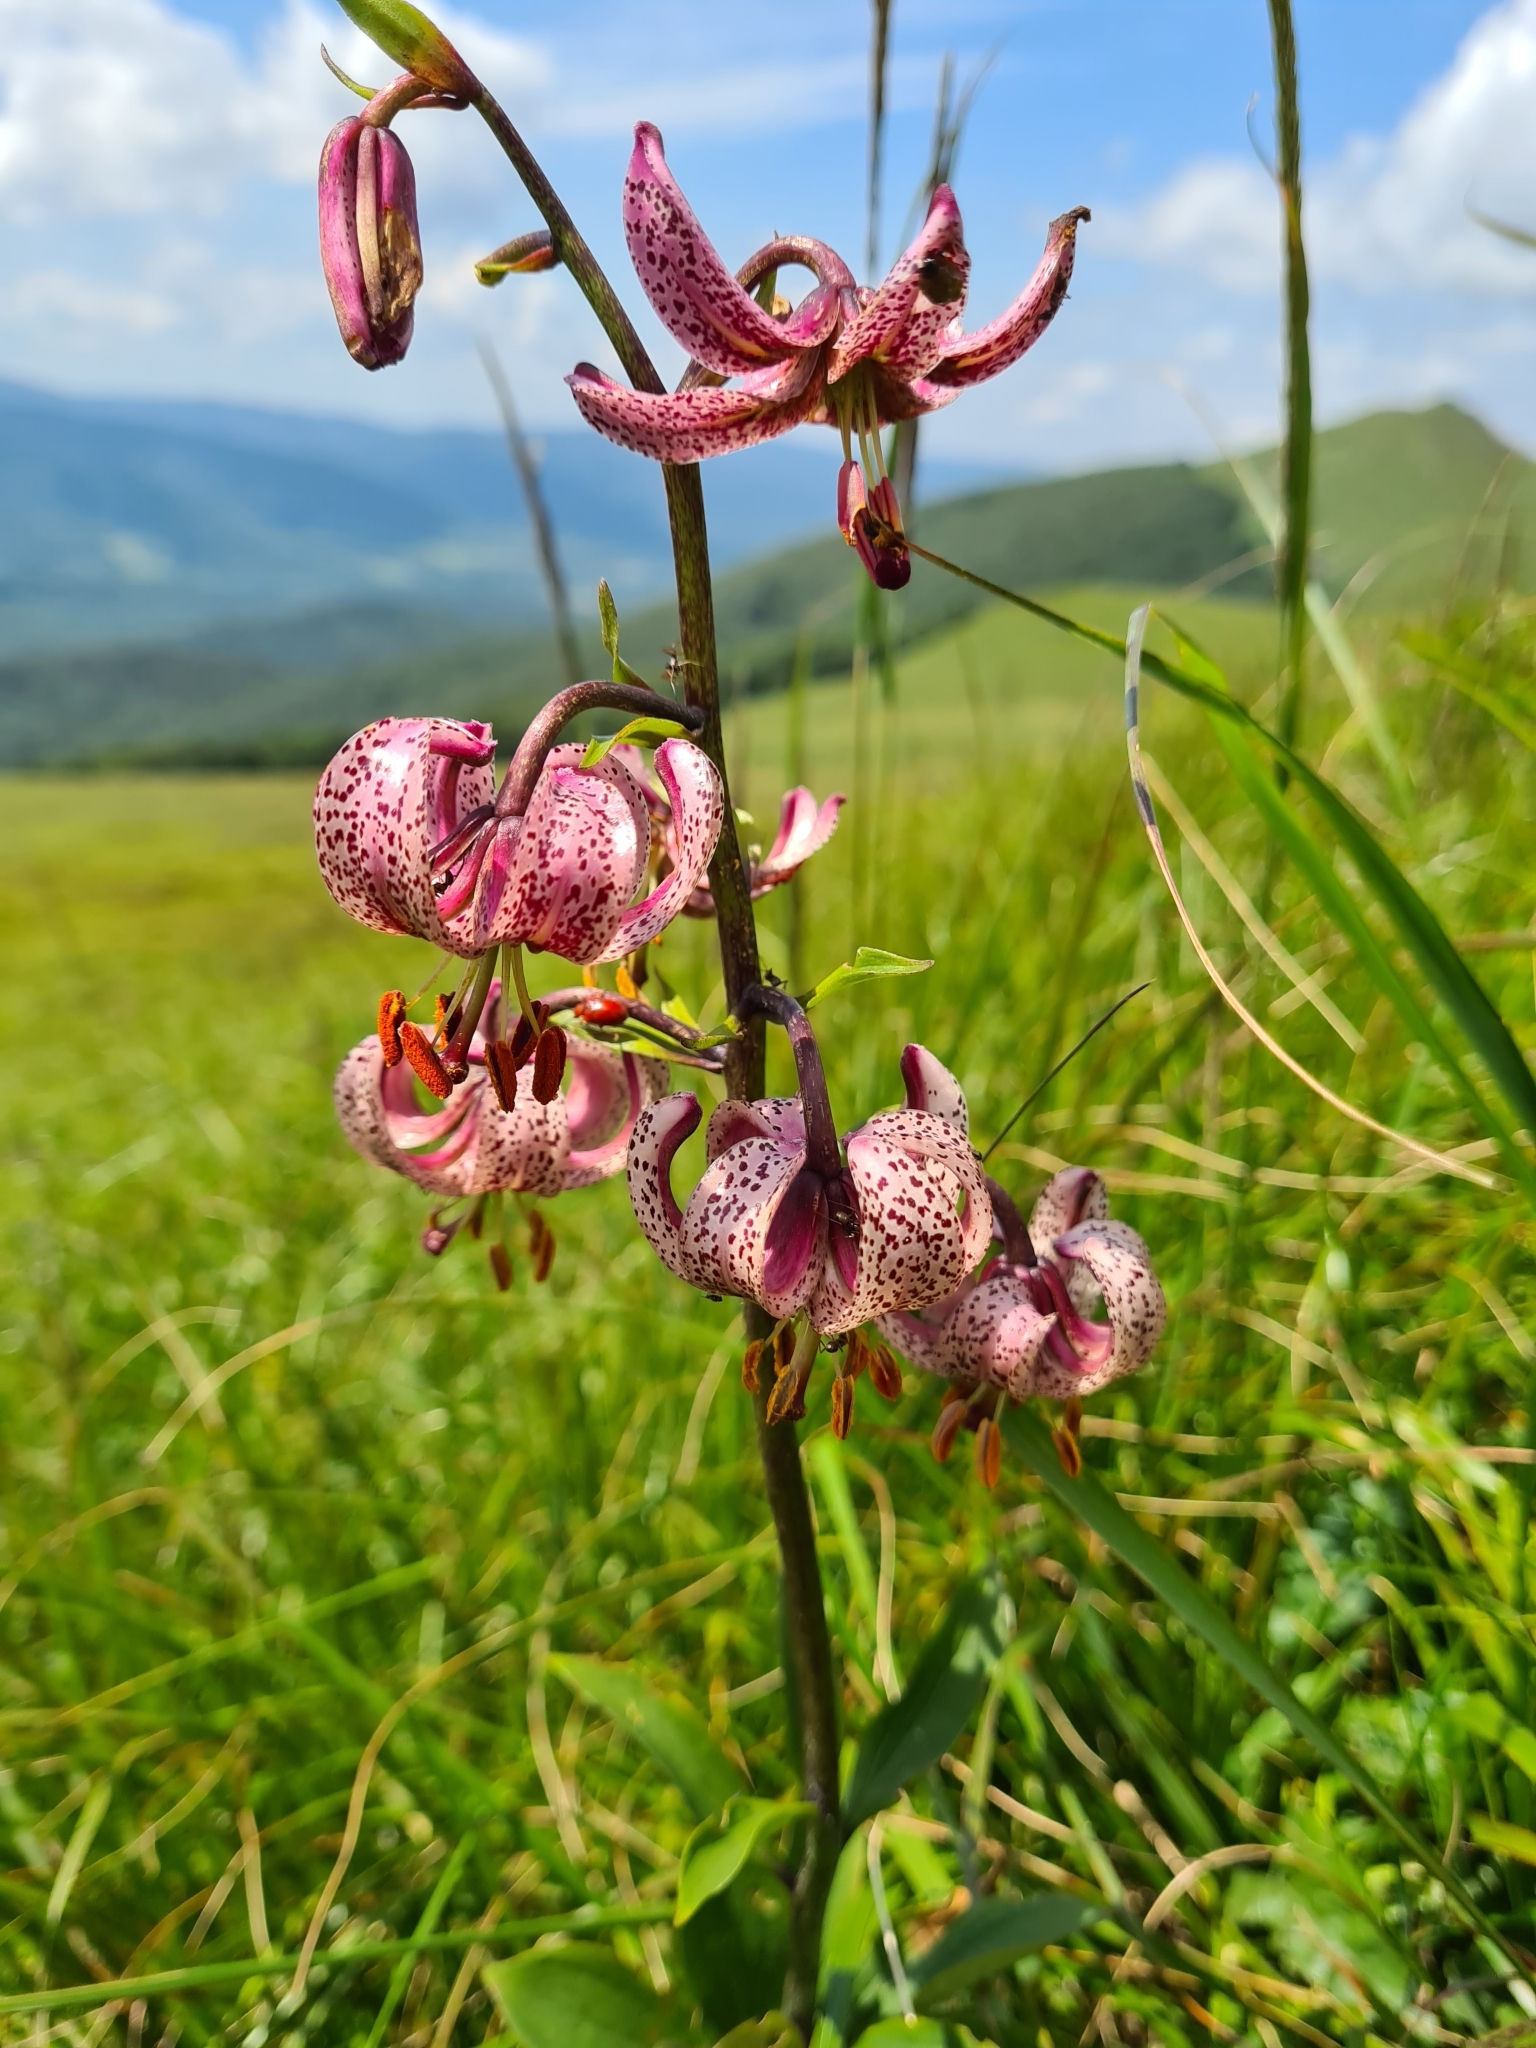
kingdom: Plantae
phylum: Tracheophyta
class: Liliopsida
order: Liliales
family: Liliaceae
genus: Lilium
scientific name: Lilium martagon
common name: Martagon lily
